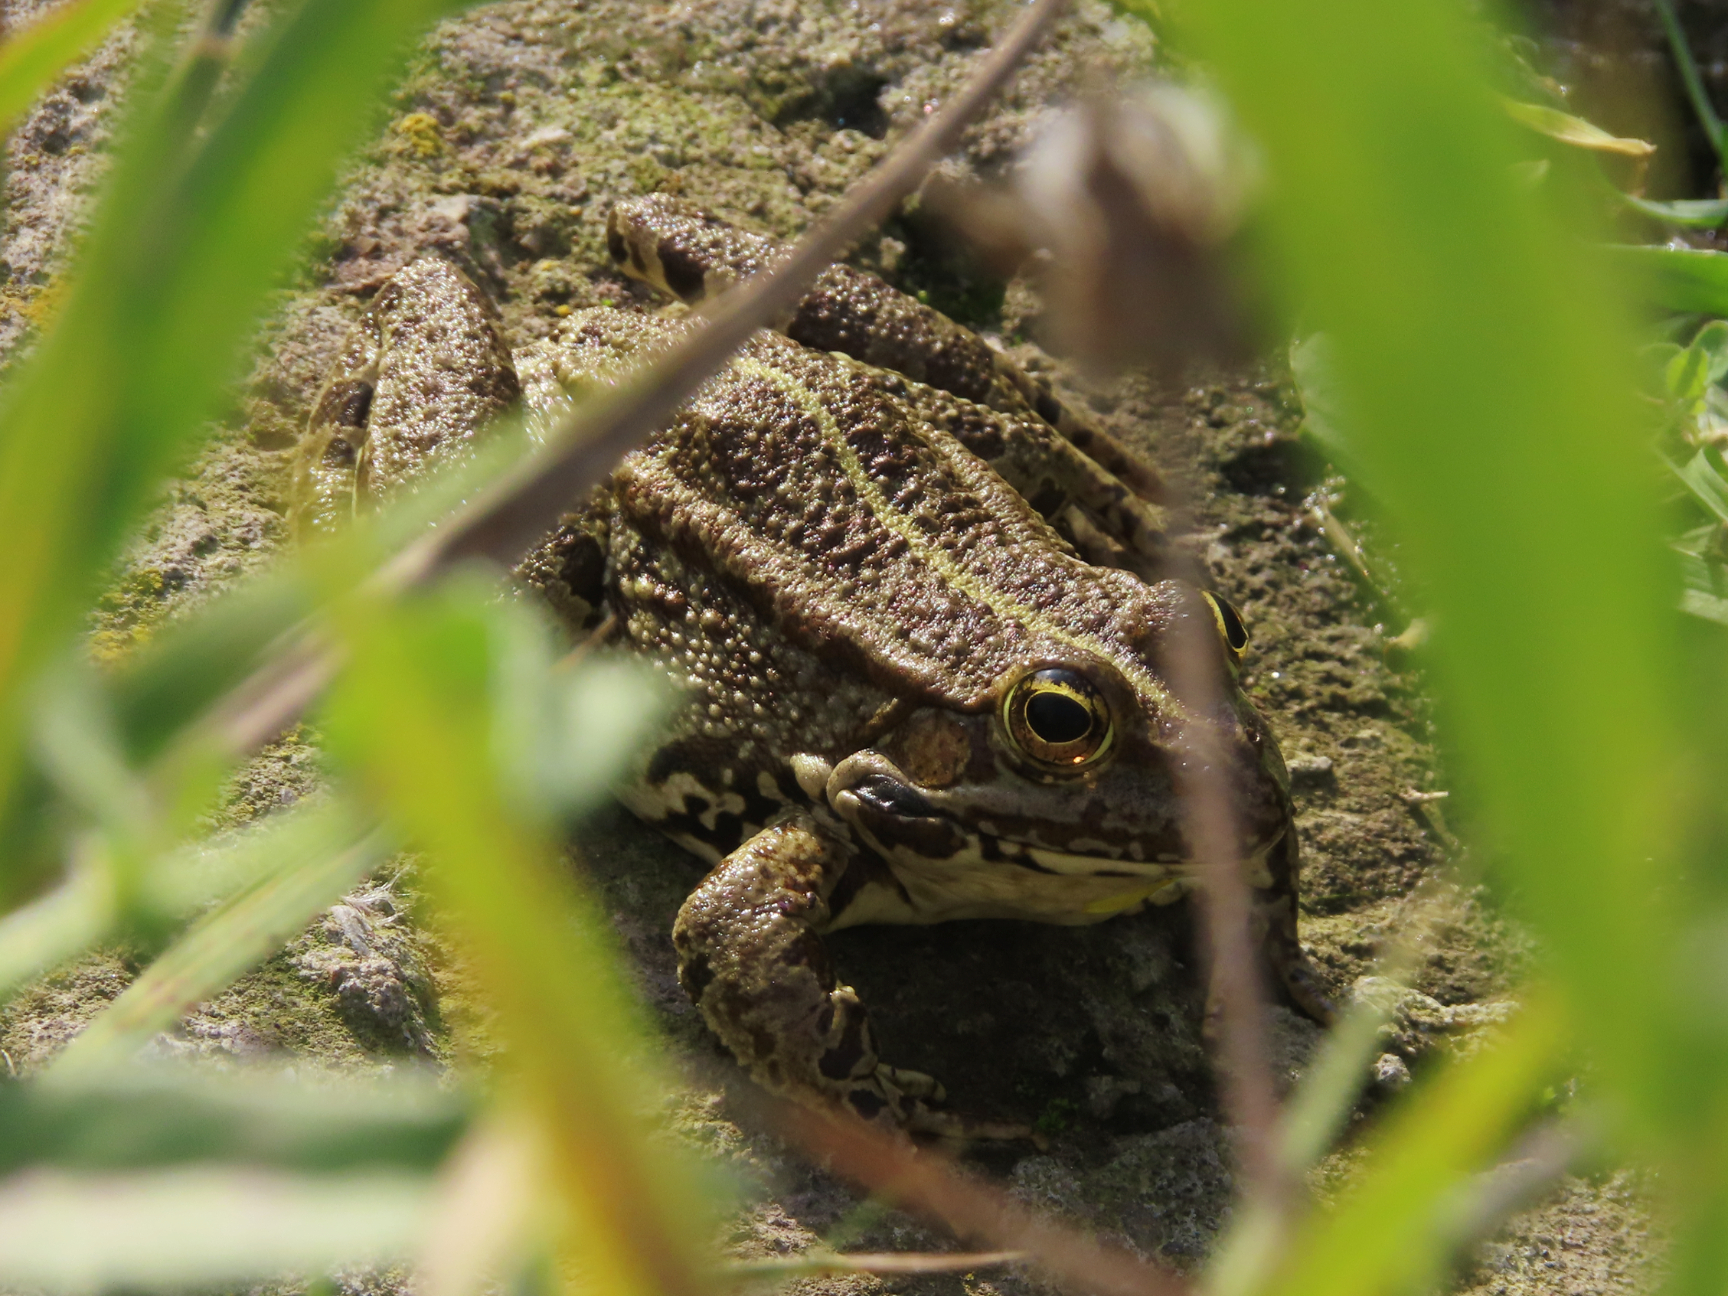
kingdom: Animalia
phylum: Chordata
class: Amphibia
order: Anura
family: Ranidae
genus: Pelophylax
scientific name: Pelophylax ridibundus
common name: Marsh frog
